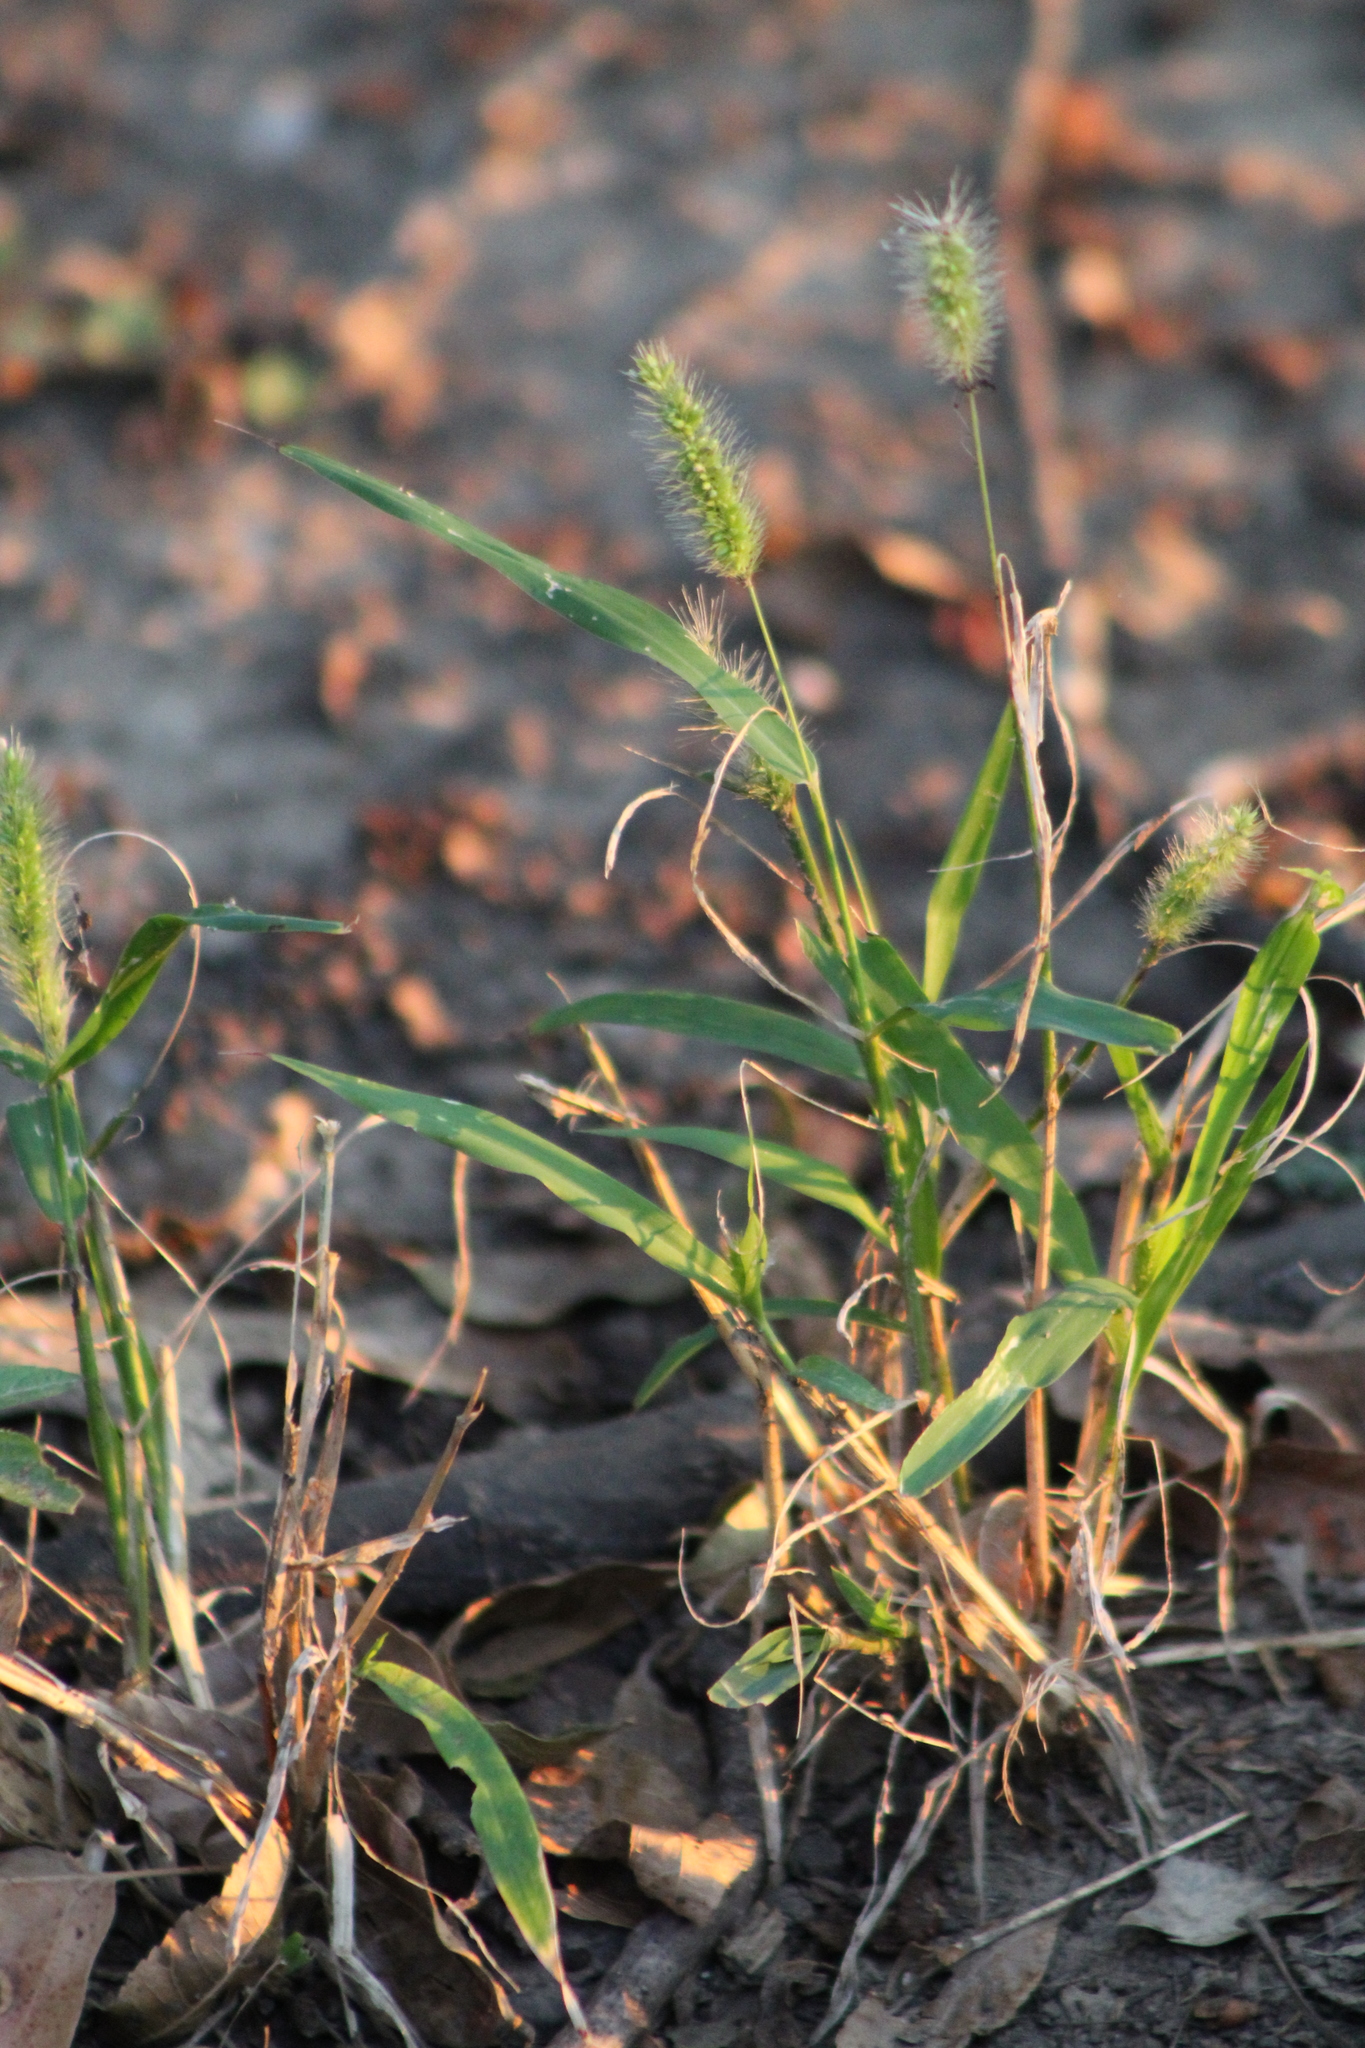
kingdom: Plantae
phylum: Tracheophyta
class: Liliopsida
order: Poales
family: Poaceae
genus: Setaria
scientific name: Setaria viridis
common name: Green bristlegrass
